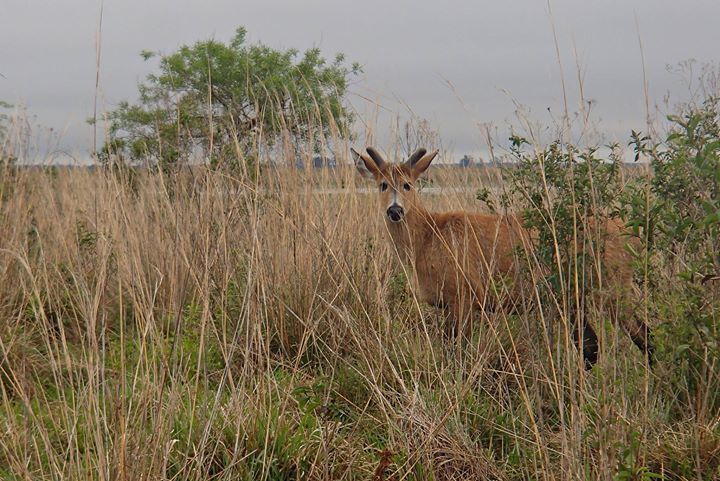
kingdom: Animalia
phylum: Chordata
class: Mammalia
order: Artiodactyla
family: Cervidae
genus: Blastocerus
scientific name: Blastocerus dichotomus
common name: Marsh deer
